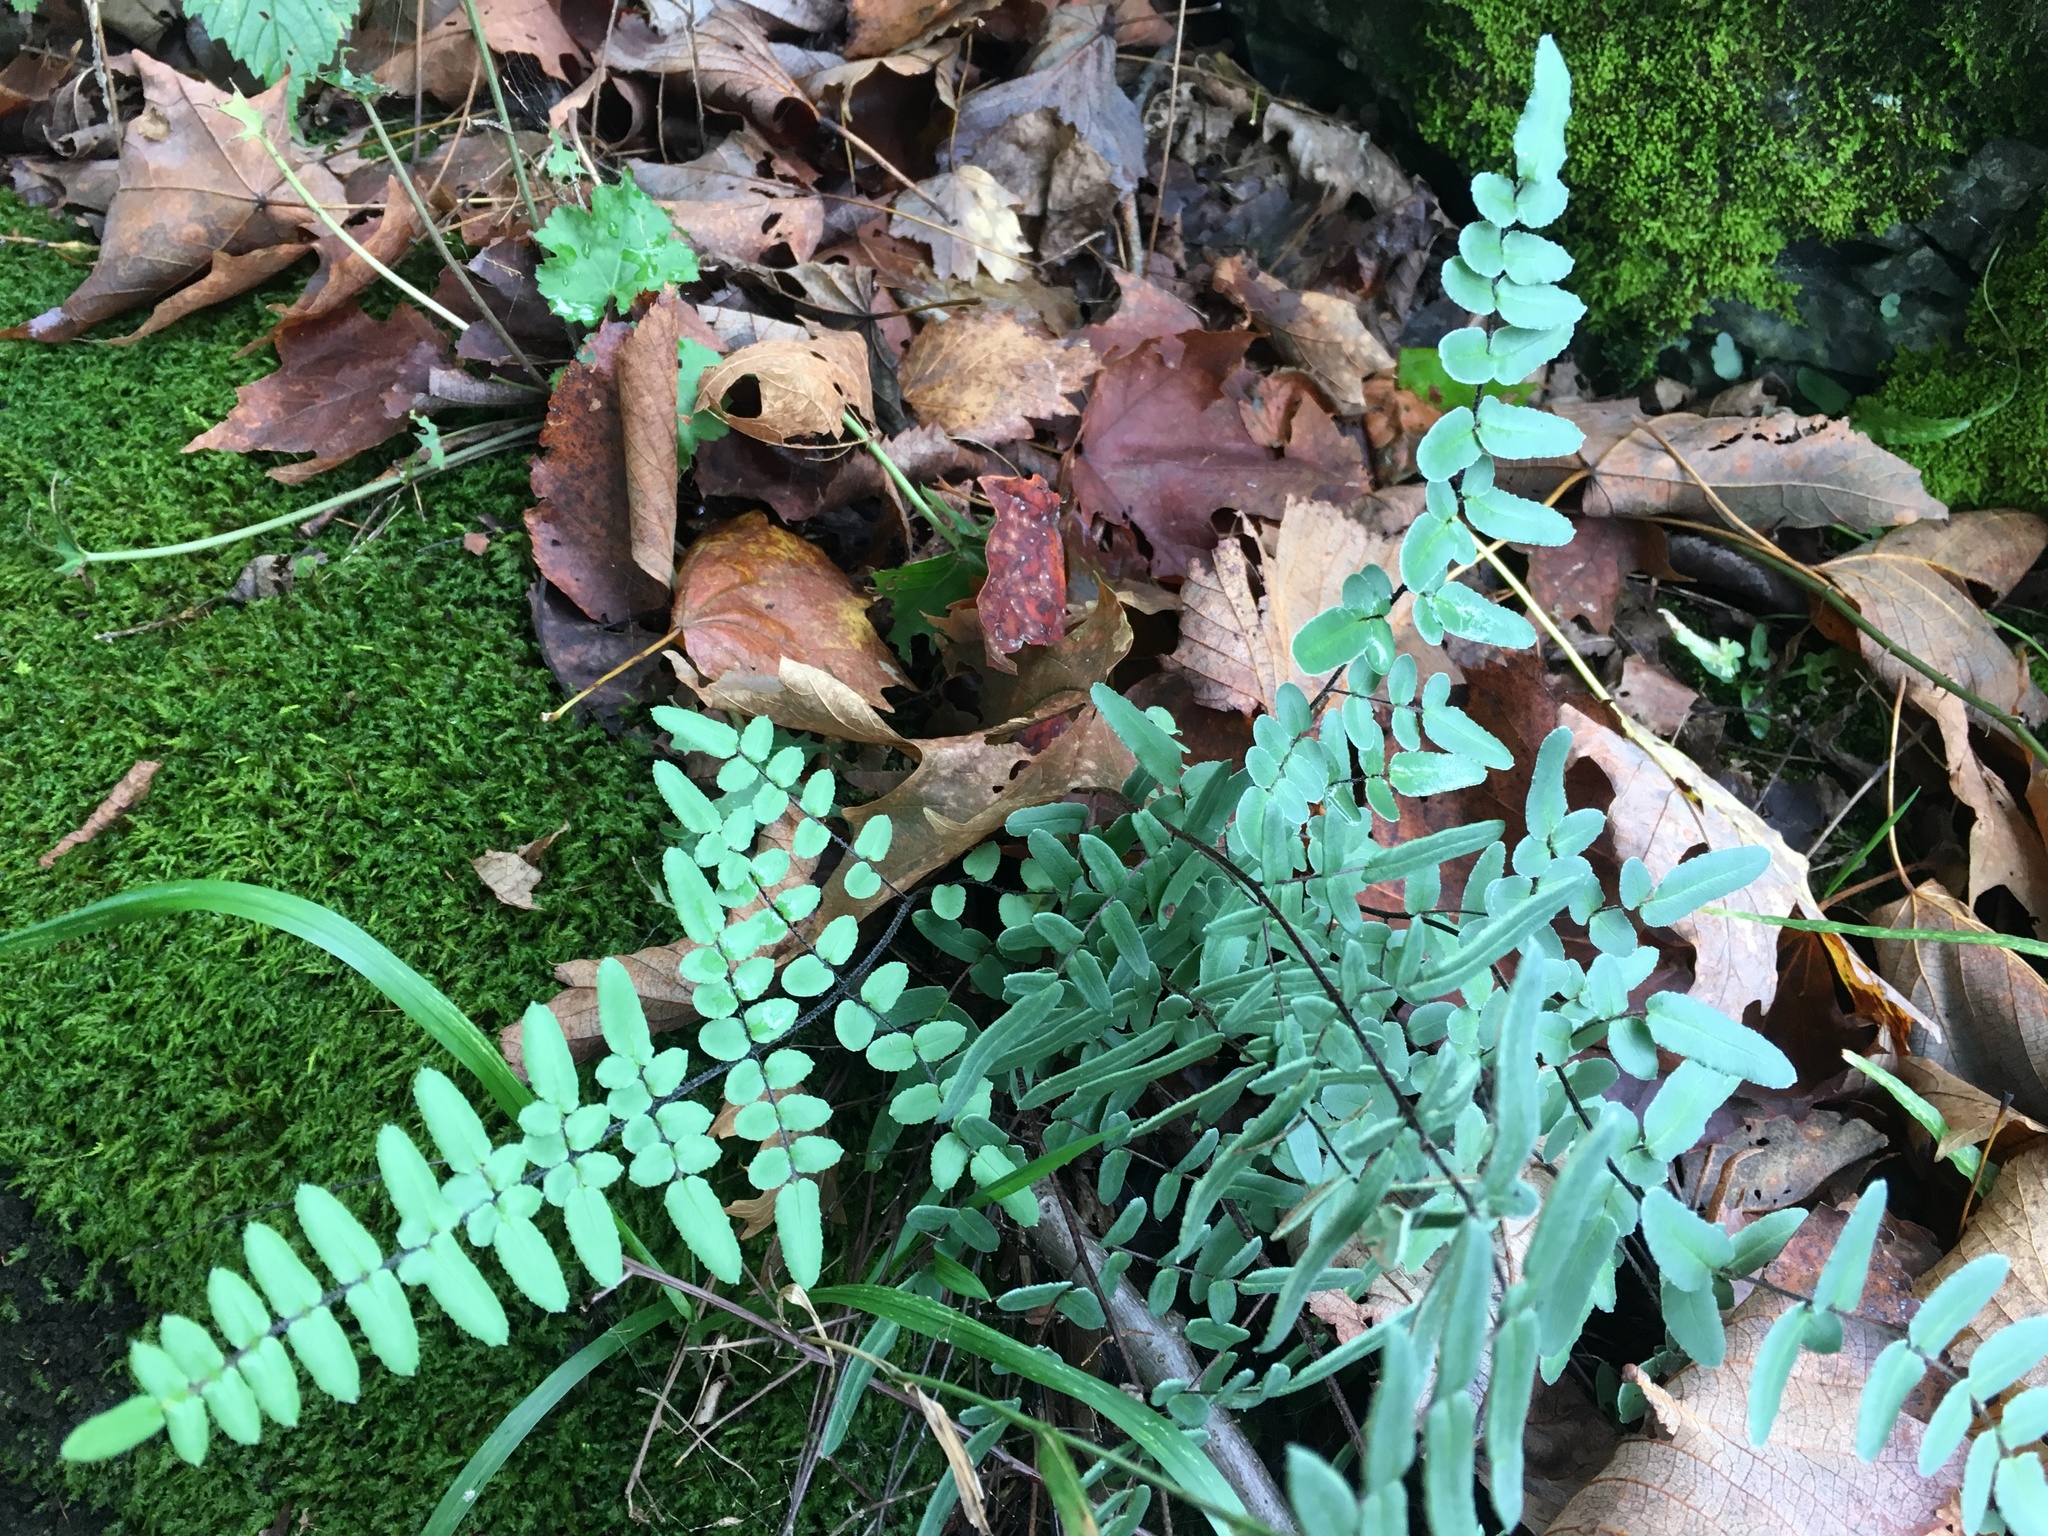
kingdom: Plantae
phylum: Tracheophyta
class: Polypodiopsida
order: Polypodiales
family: Pteridaceae
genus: Pellaea
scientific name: Pellaea atropurpurea
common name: Hairy cliffbrake
